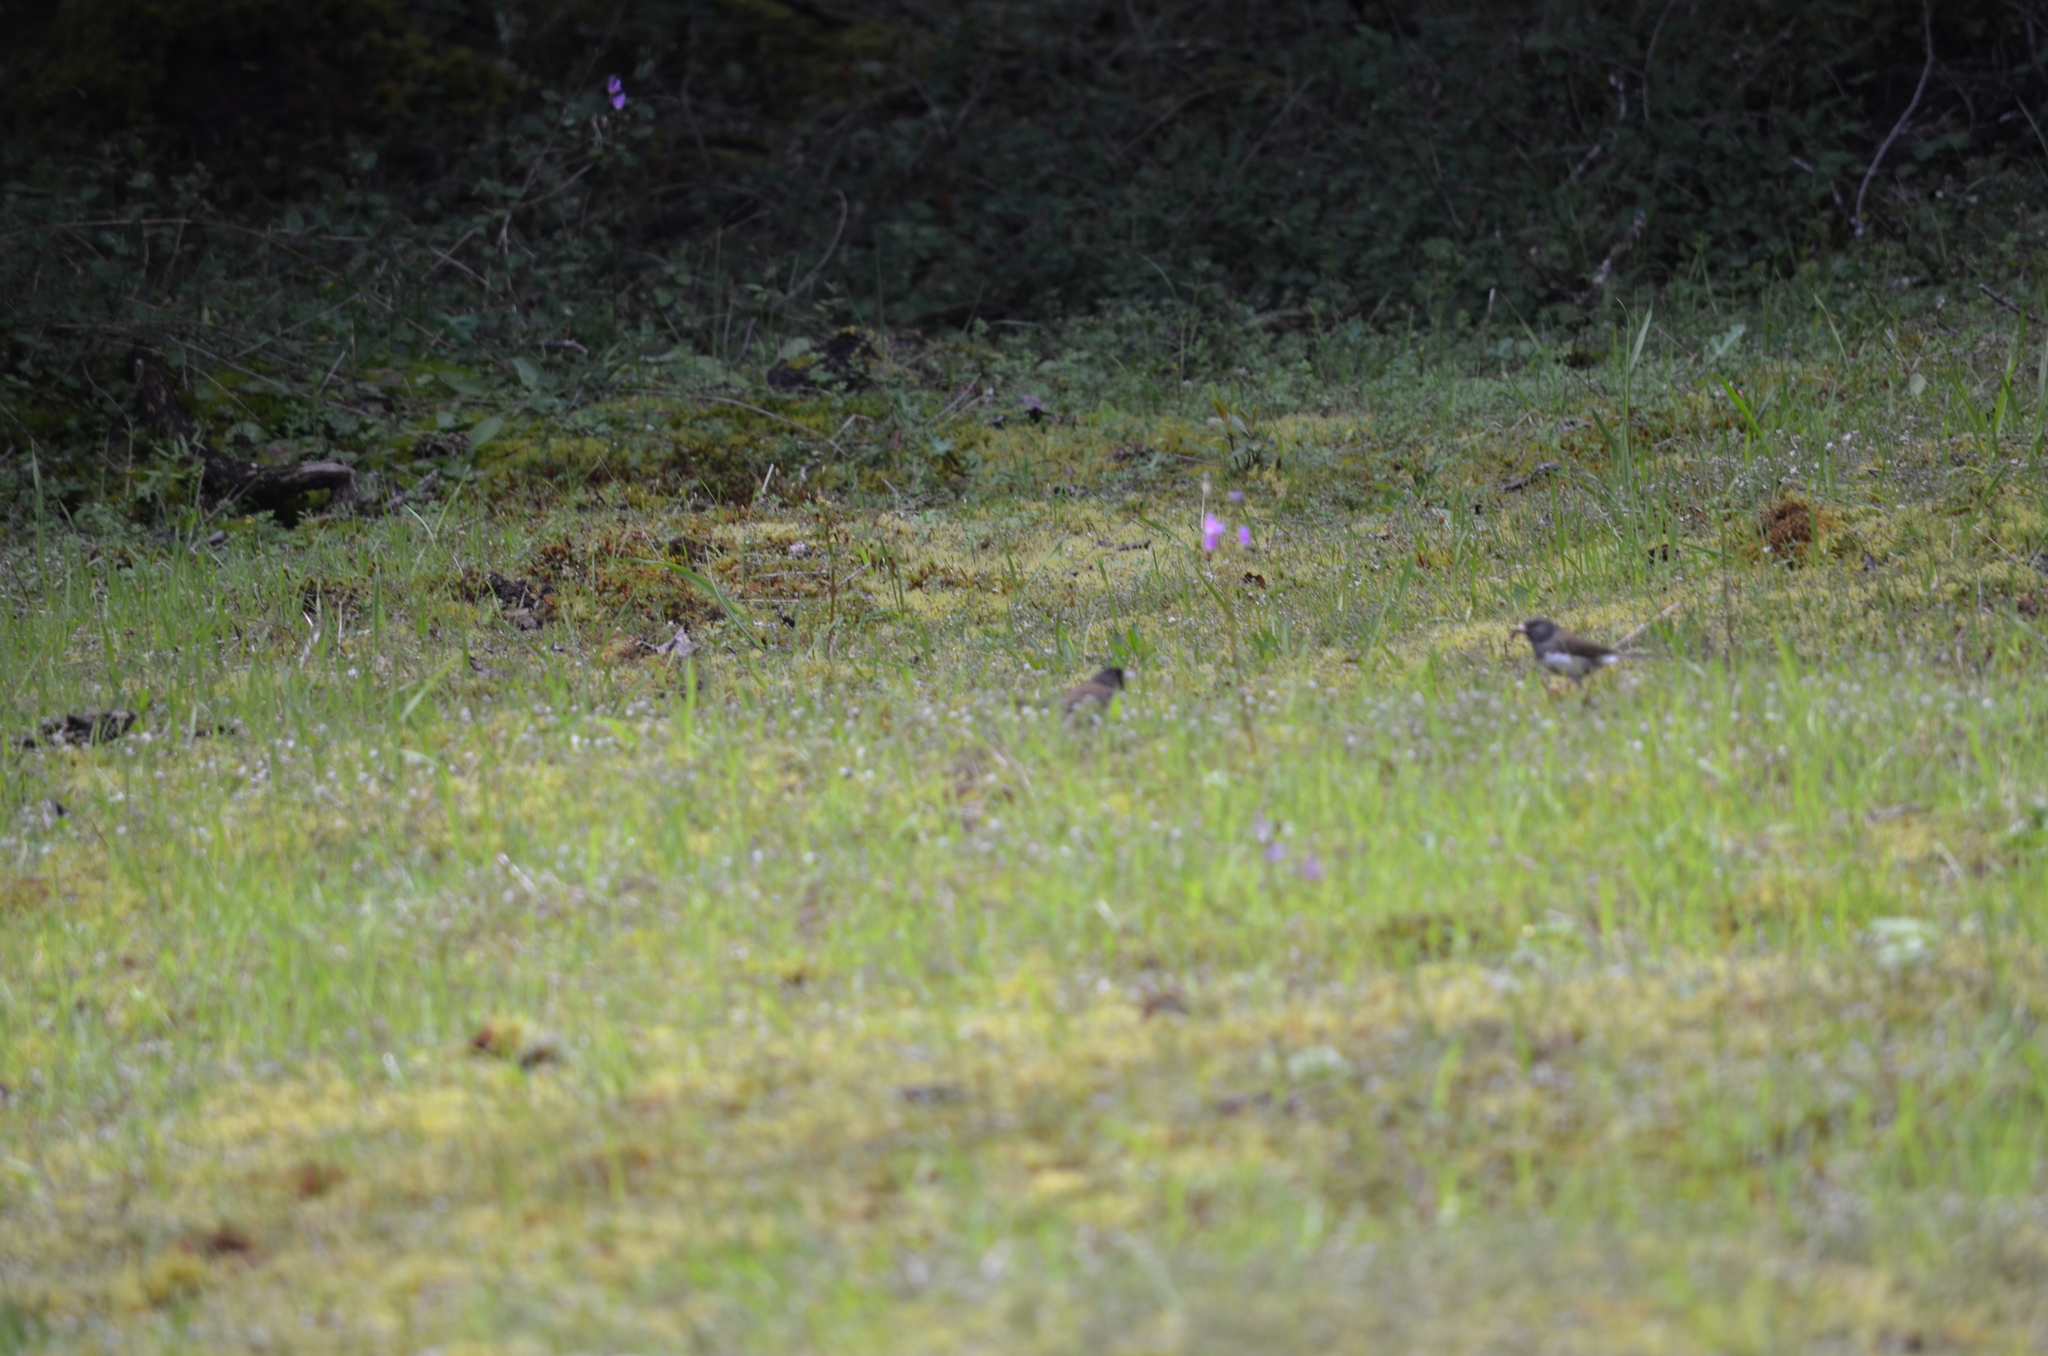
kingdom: Animalia
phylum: Chordata
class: Aves
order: Passeriformes
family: Passerellidae
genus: Junco
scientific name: Junco hyemalis
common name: Dark-eyed junco
